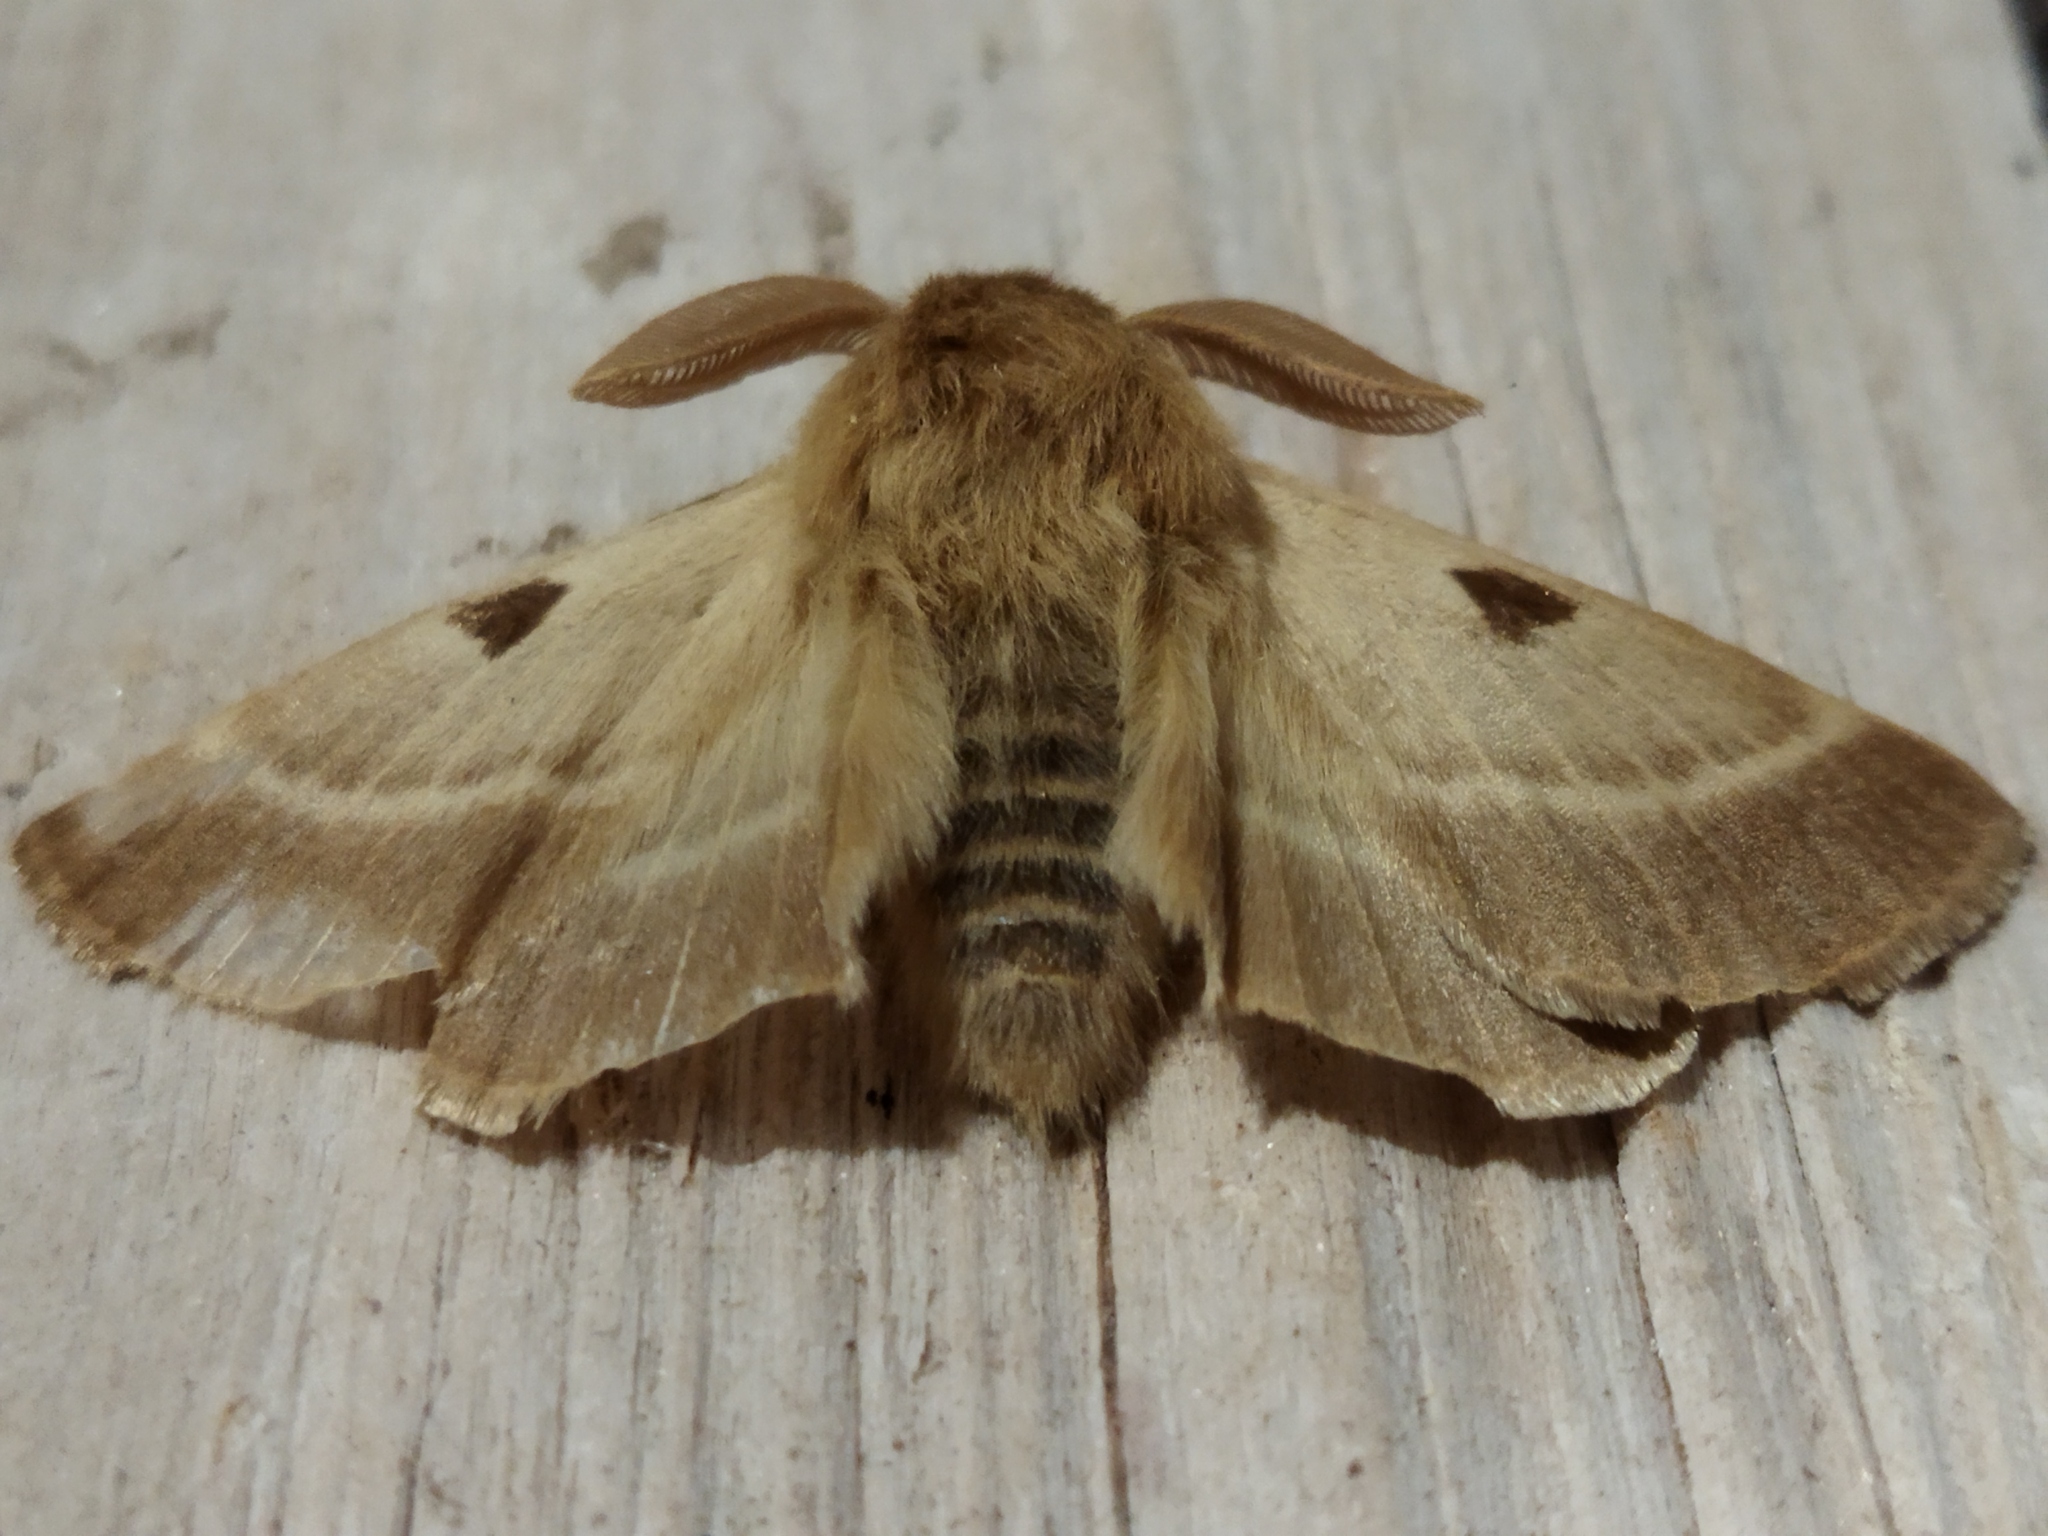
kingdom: Animalia
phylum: Arthropoda
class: Insecta
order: Lepidoptera
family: Brahmaeidae
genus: Lemonia
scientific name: Lemonia balcanica
